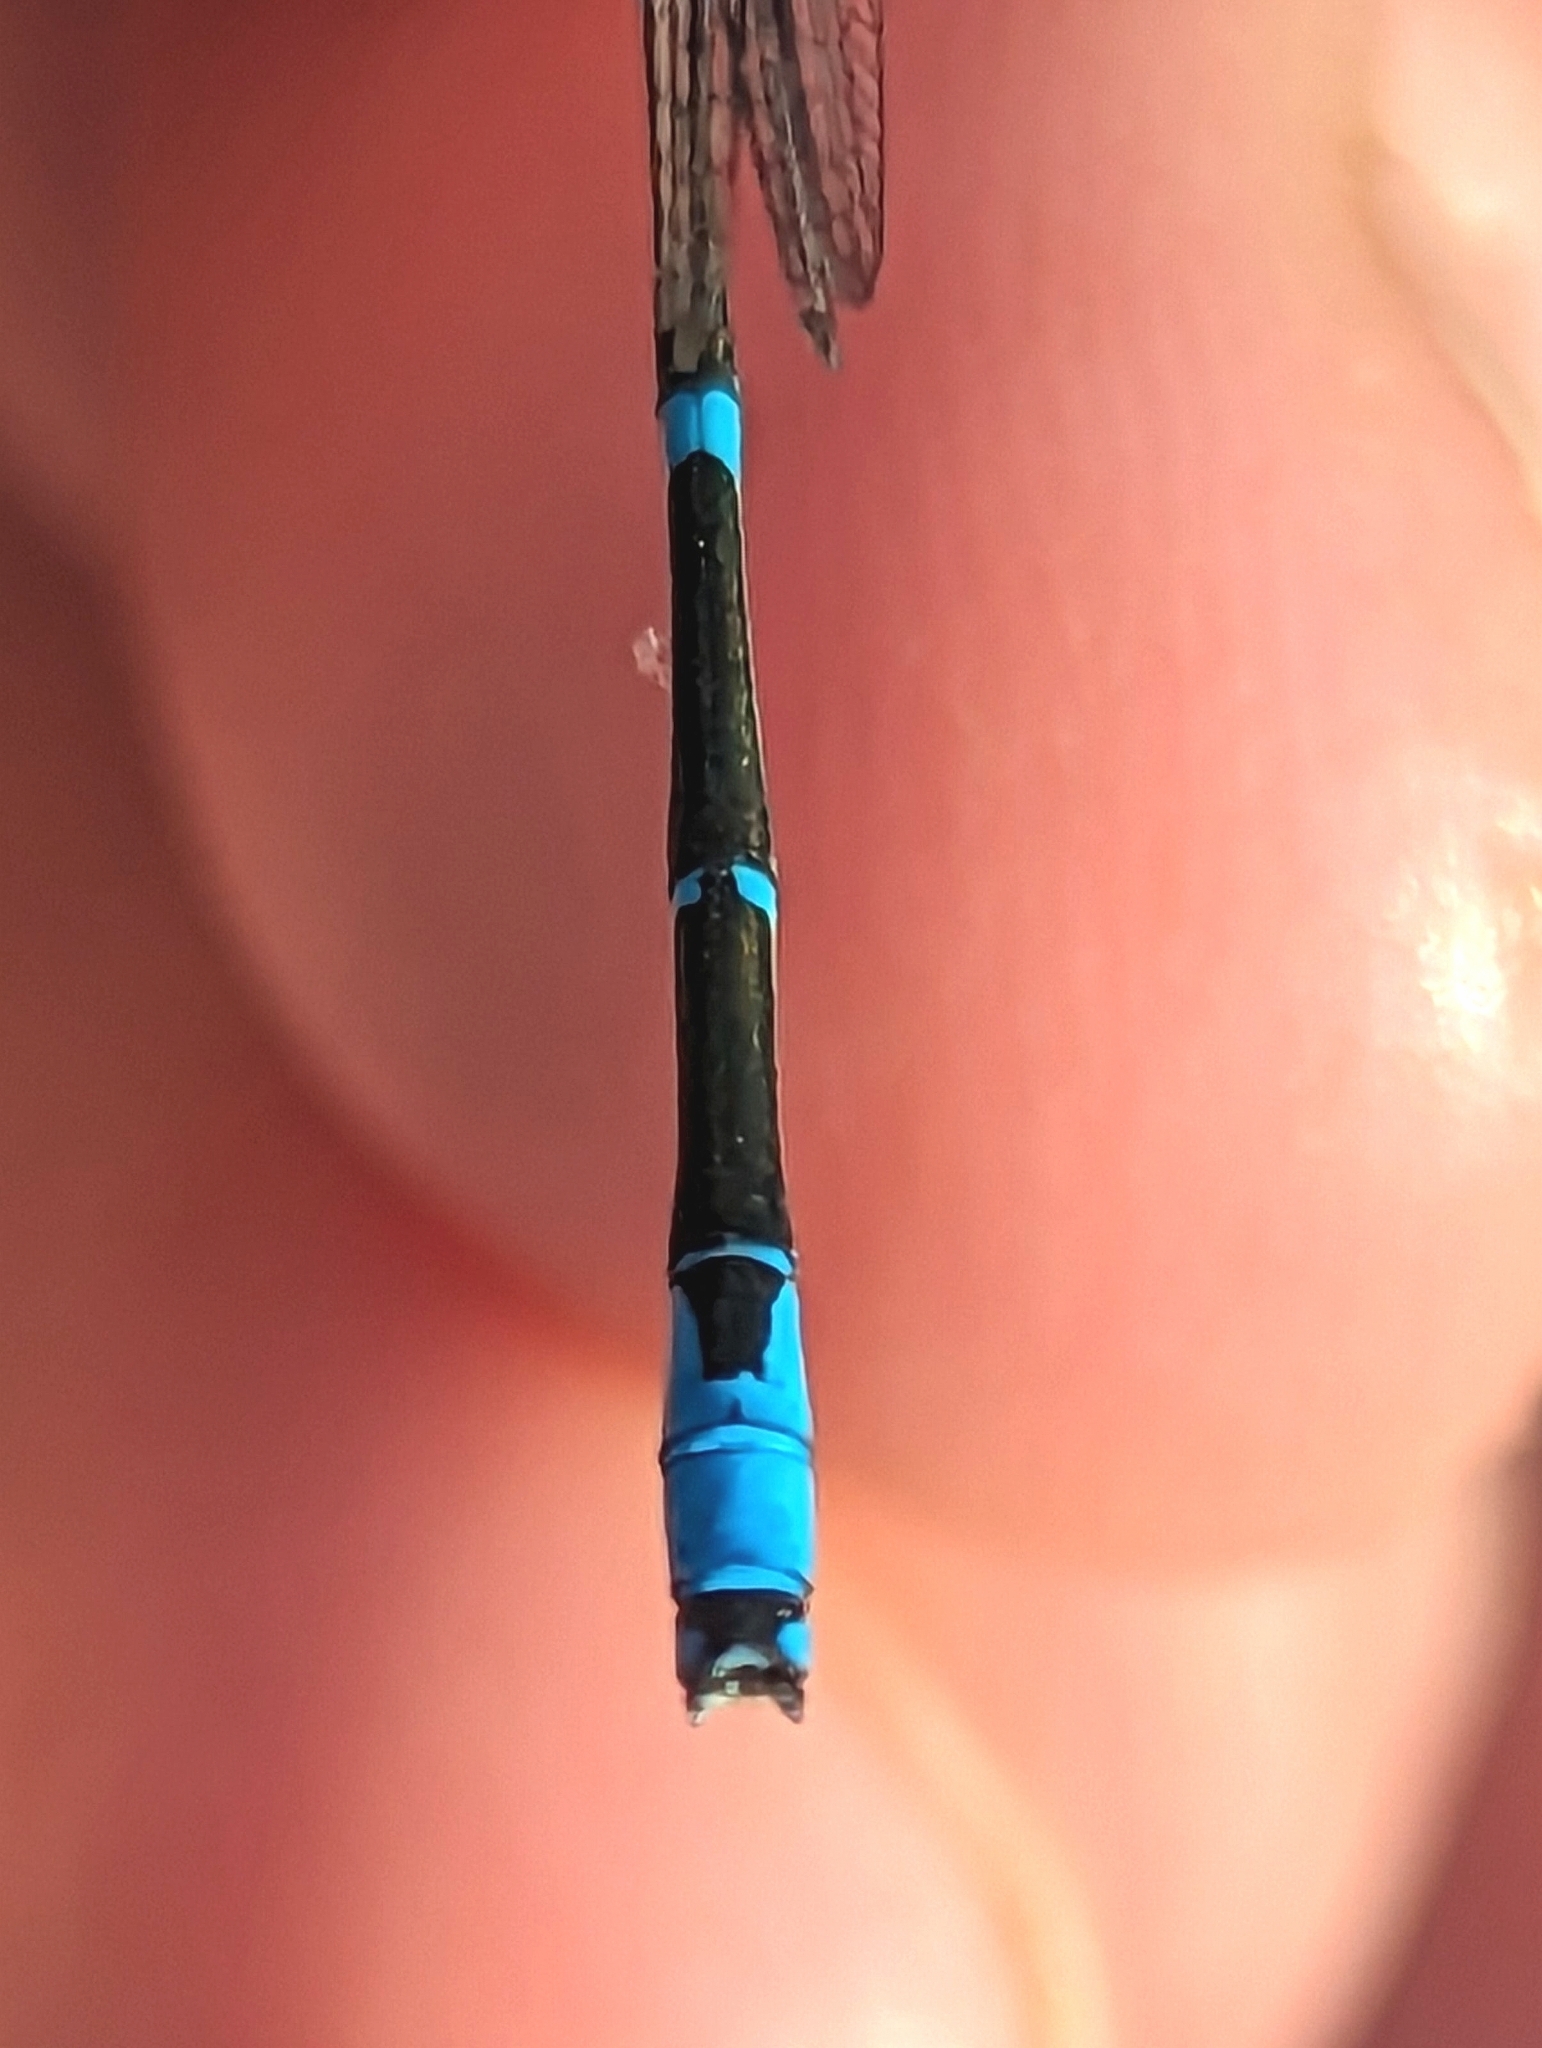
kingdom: Animalia
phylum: Arthropoda
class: Insecta
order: Odonata
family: Coenagrionidae
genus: Enallagma
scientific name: Enallagma exsulans
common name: Stream bluet
